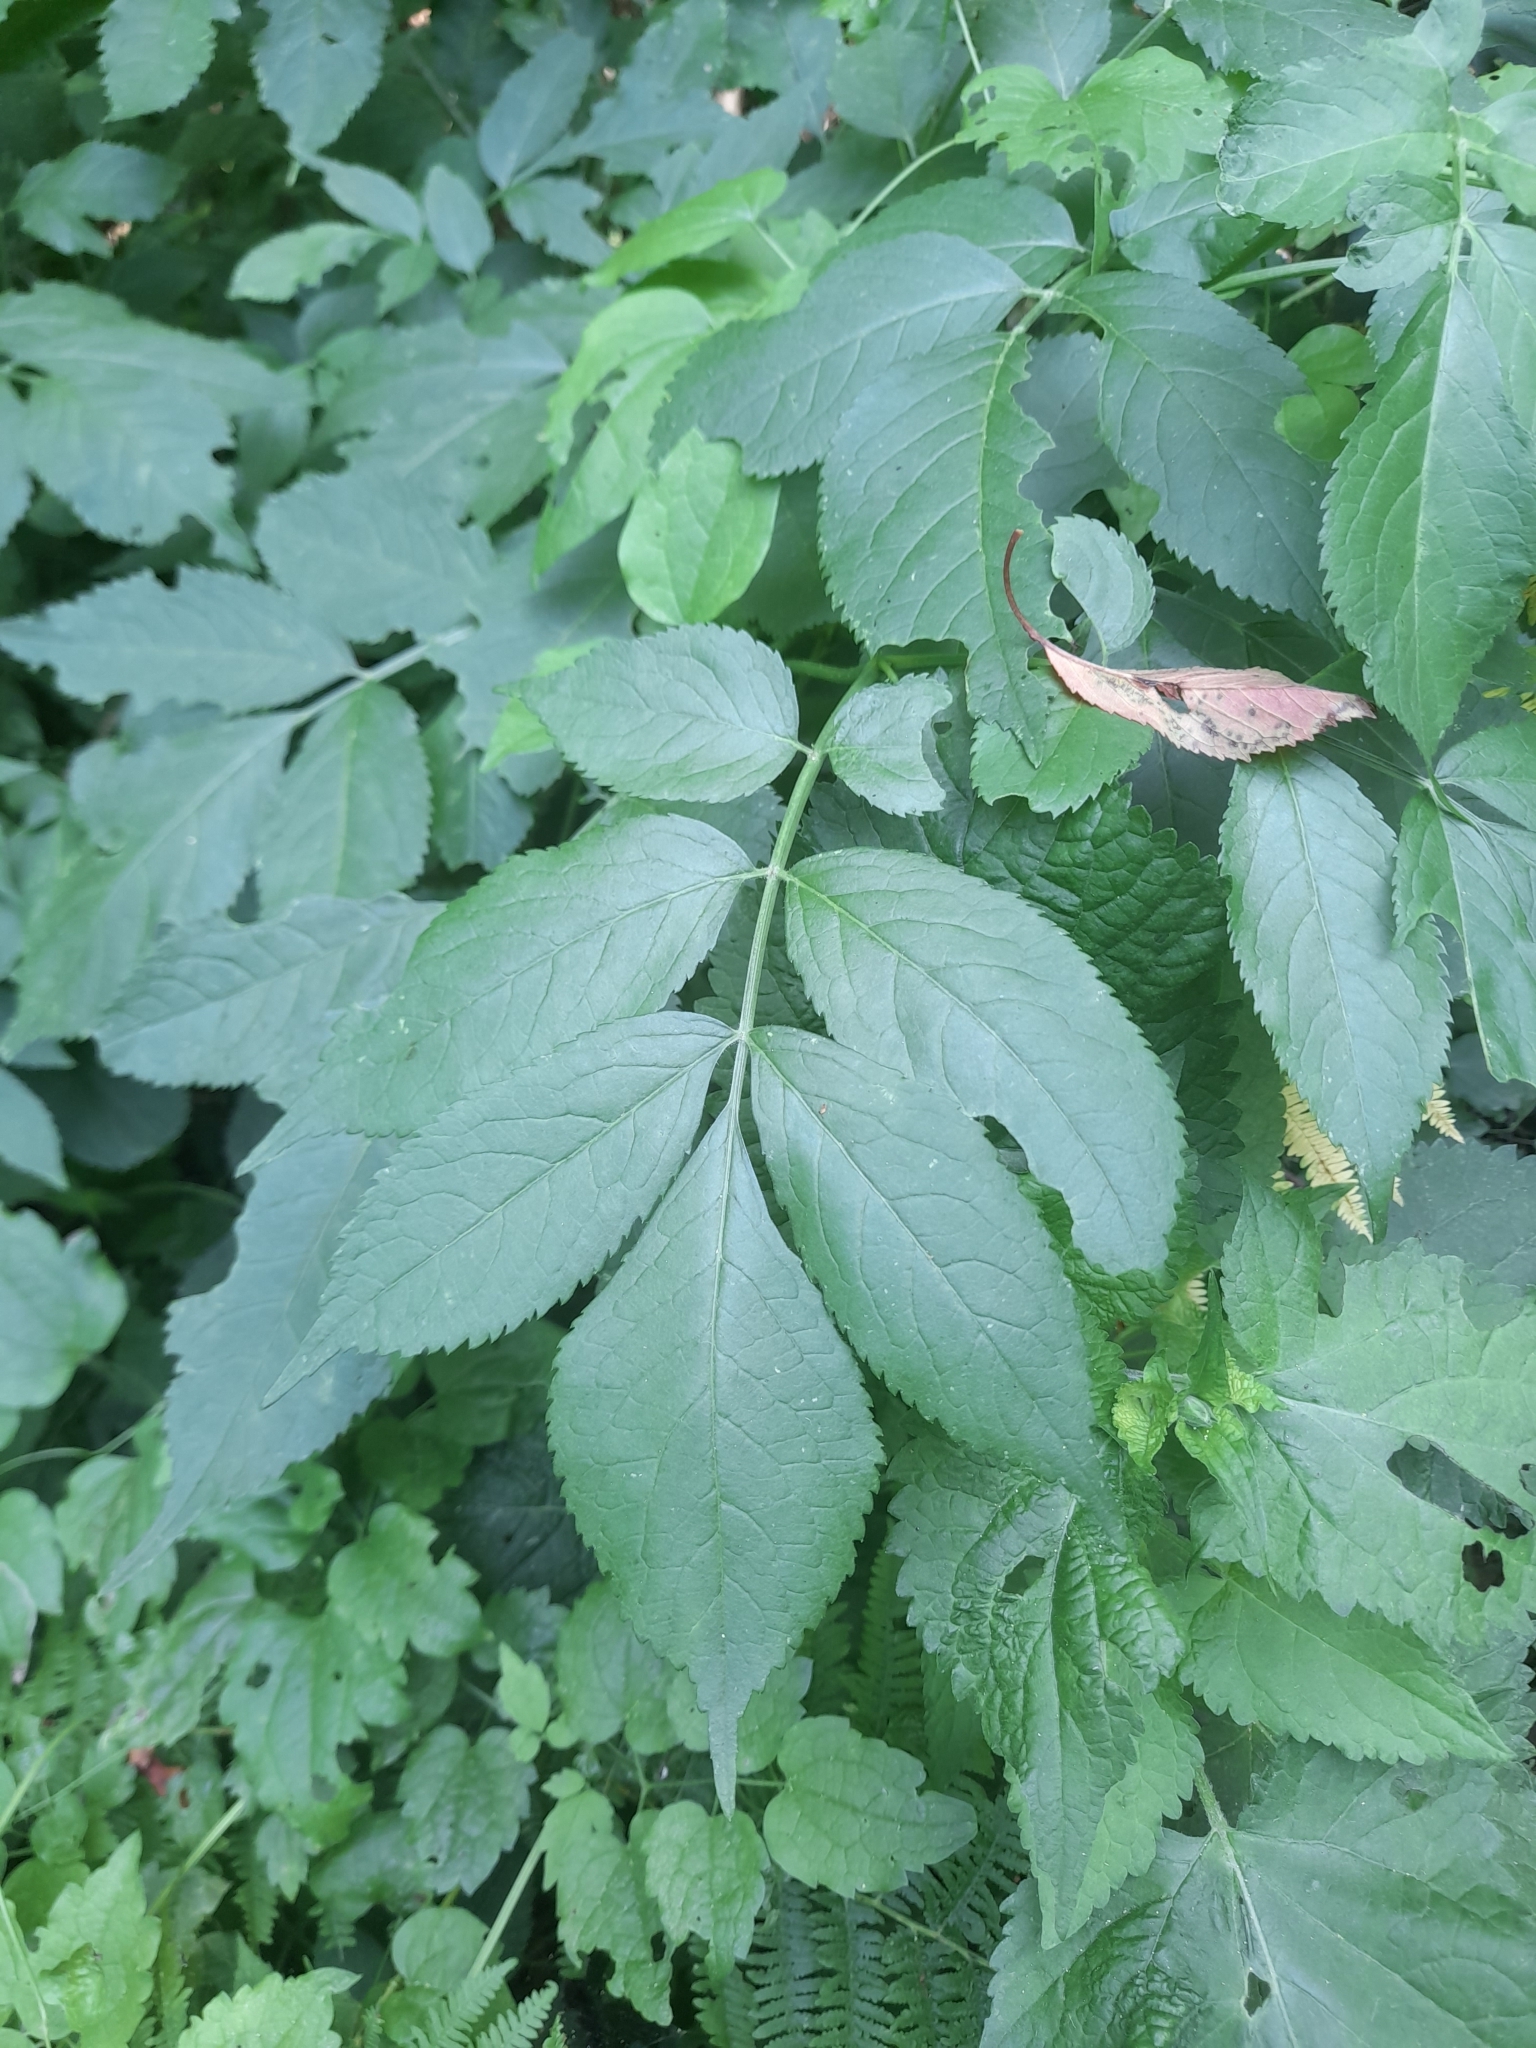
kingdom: Plantae
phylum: Tracheophyta
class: Magnoliopsida
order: Dipsacales
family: Viburnaceae
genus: Sambucus
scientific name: Sambucus nigra
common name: Elder
